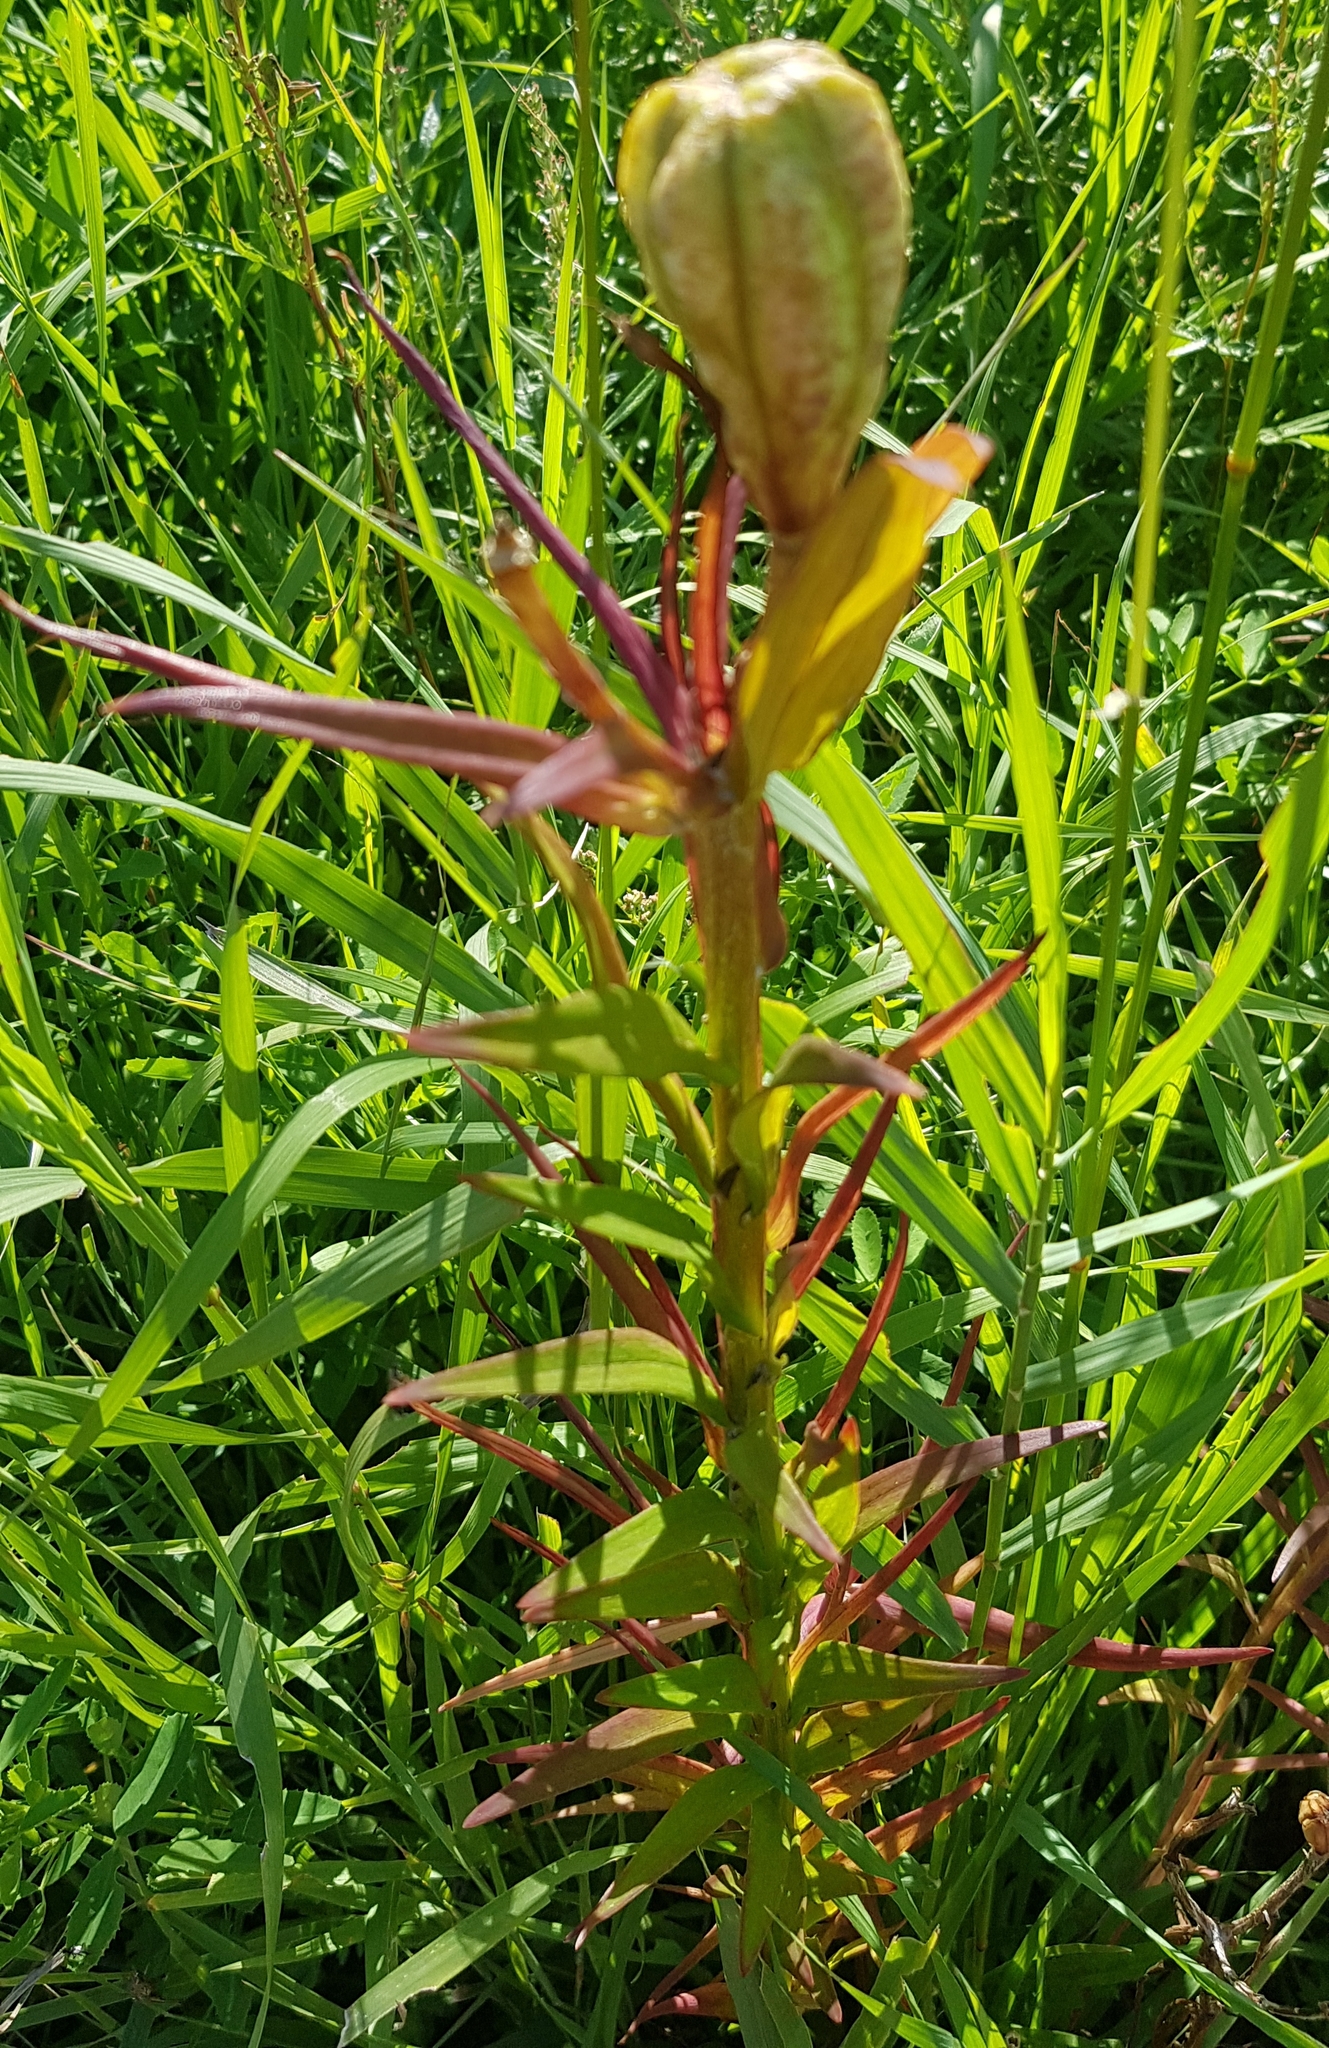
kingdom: Plantae
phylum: Tracheophyta
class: Liliopsida
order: Liliales
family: Liliaceae
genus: Lilium
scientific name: Lilium pensylvanicum
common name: Candlestick lily
